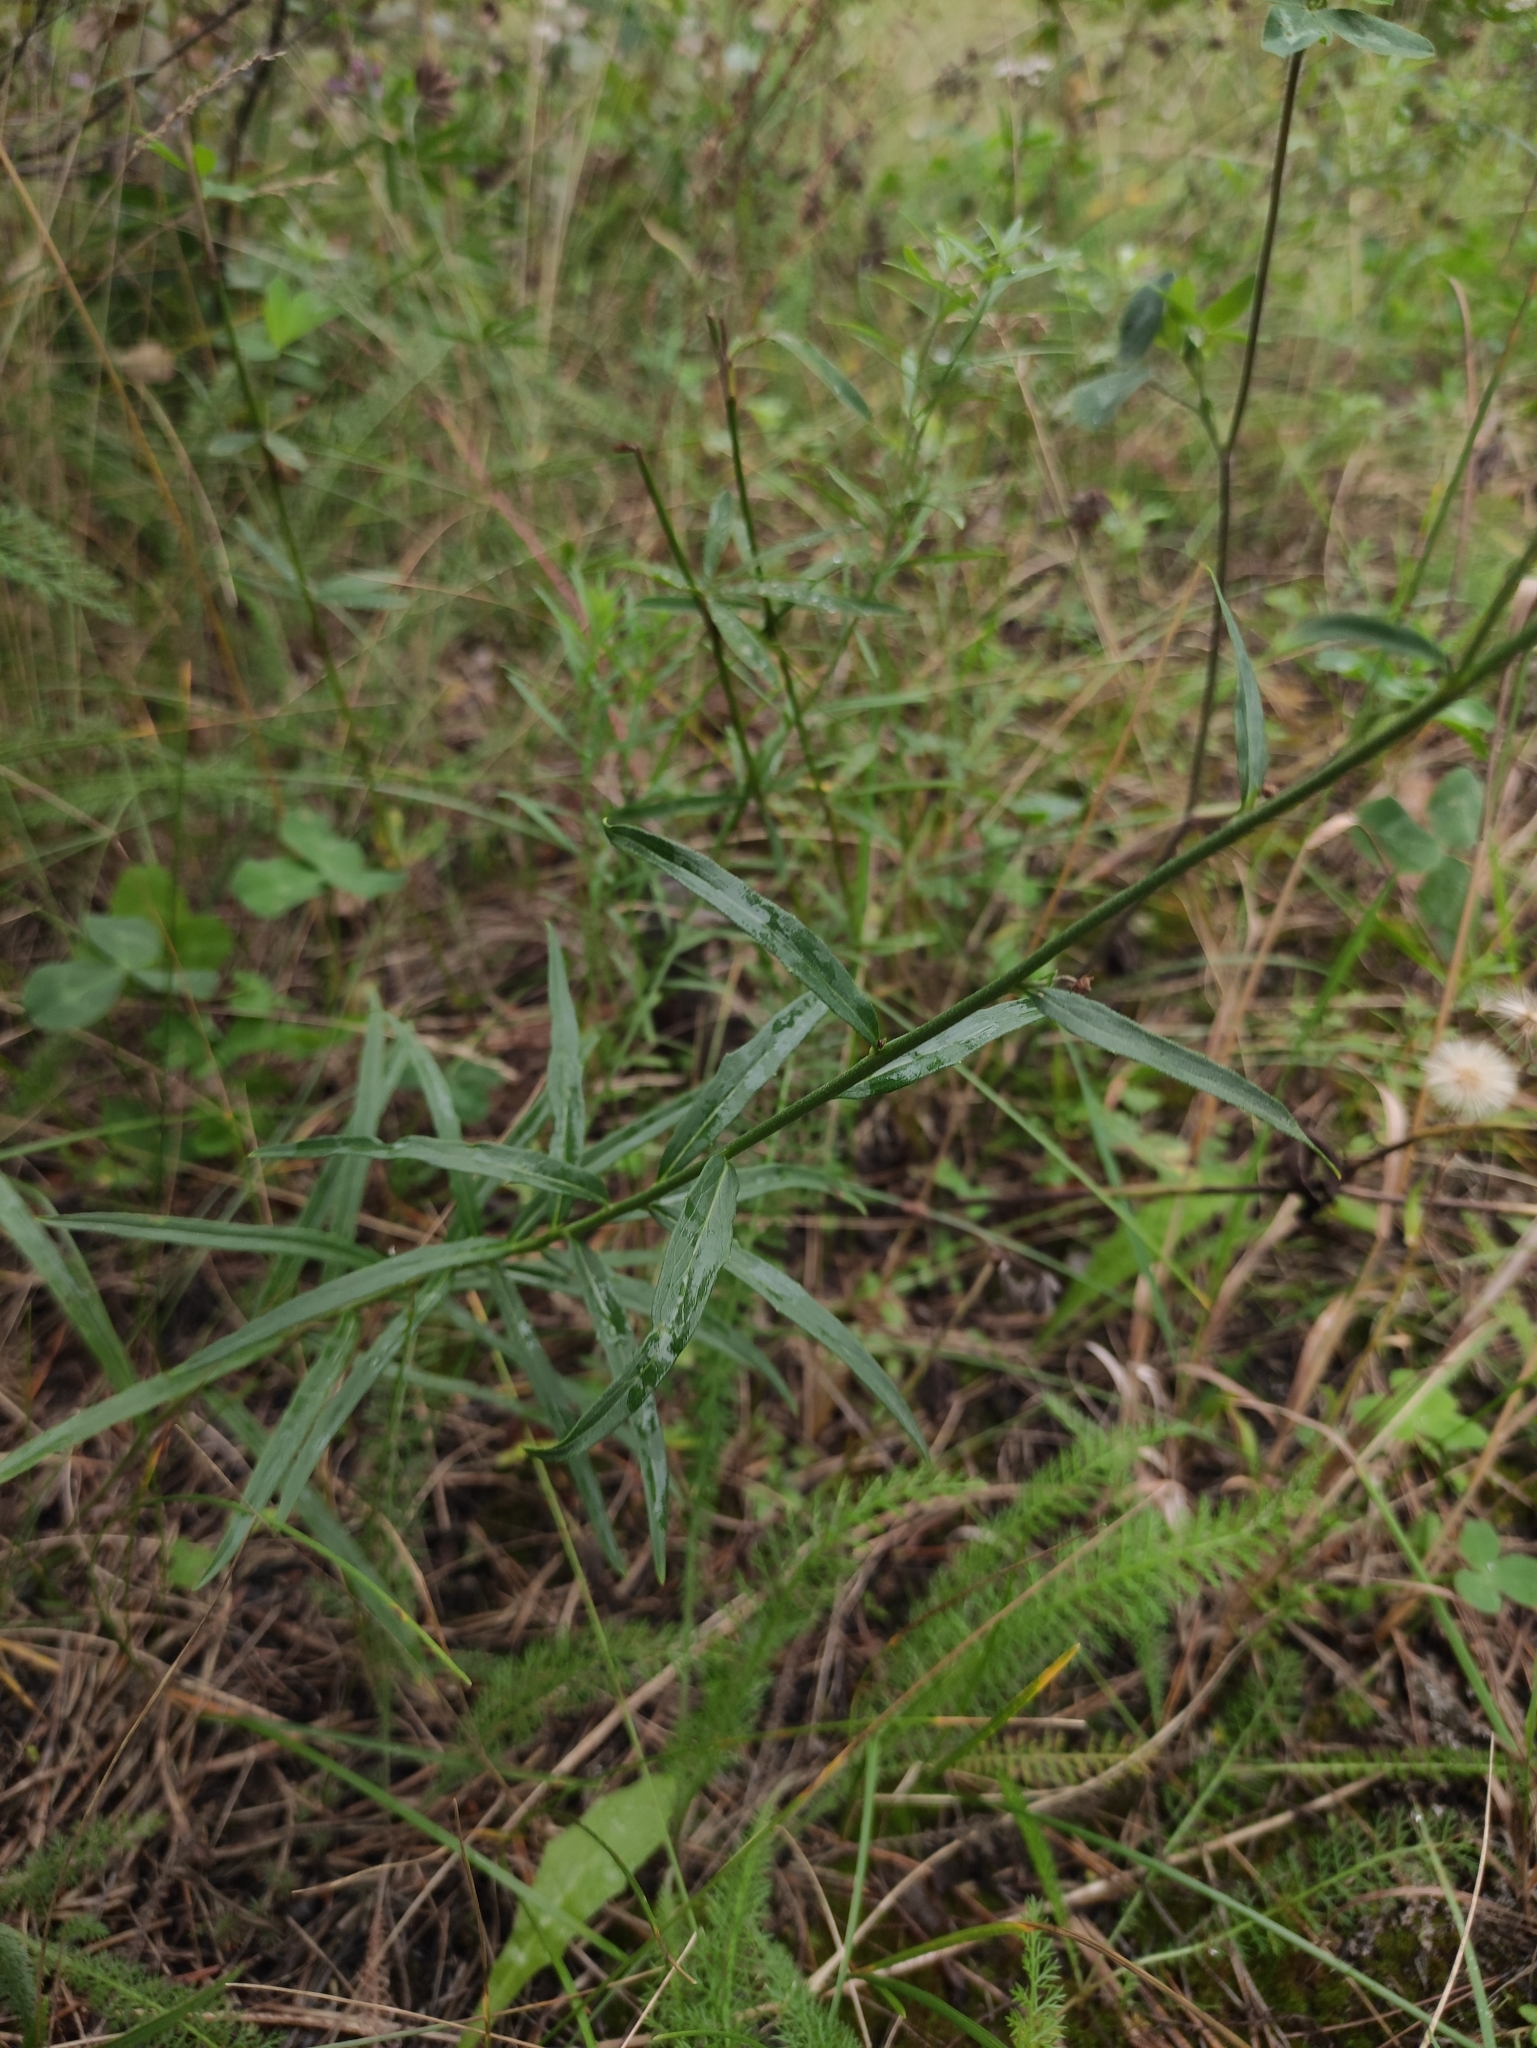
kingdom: Plantae
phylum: Tracheophyta
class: Magnoliopsida
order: Asterales
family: Asteraceae
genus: Hieracium
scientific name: Hieracium umbellatum
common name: Northern hawkweed
